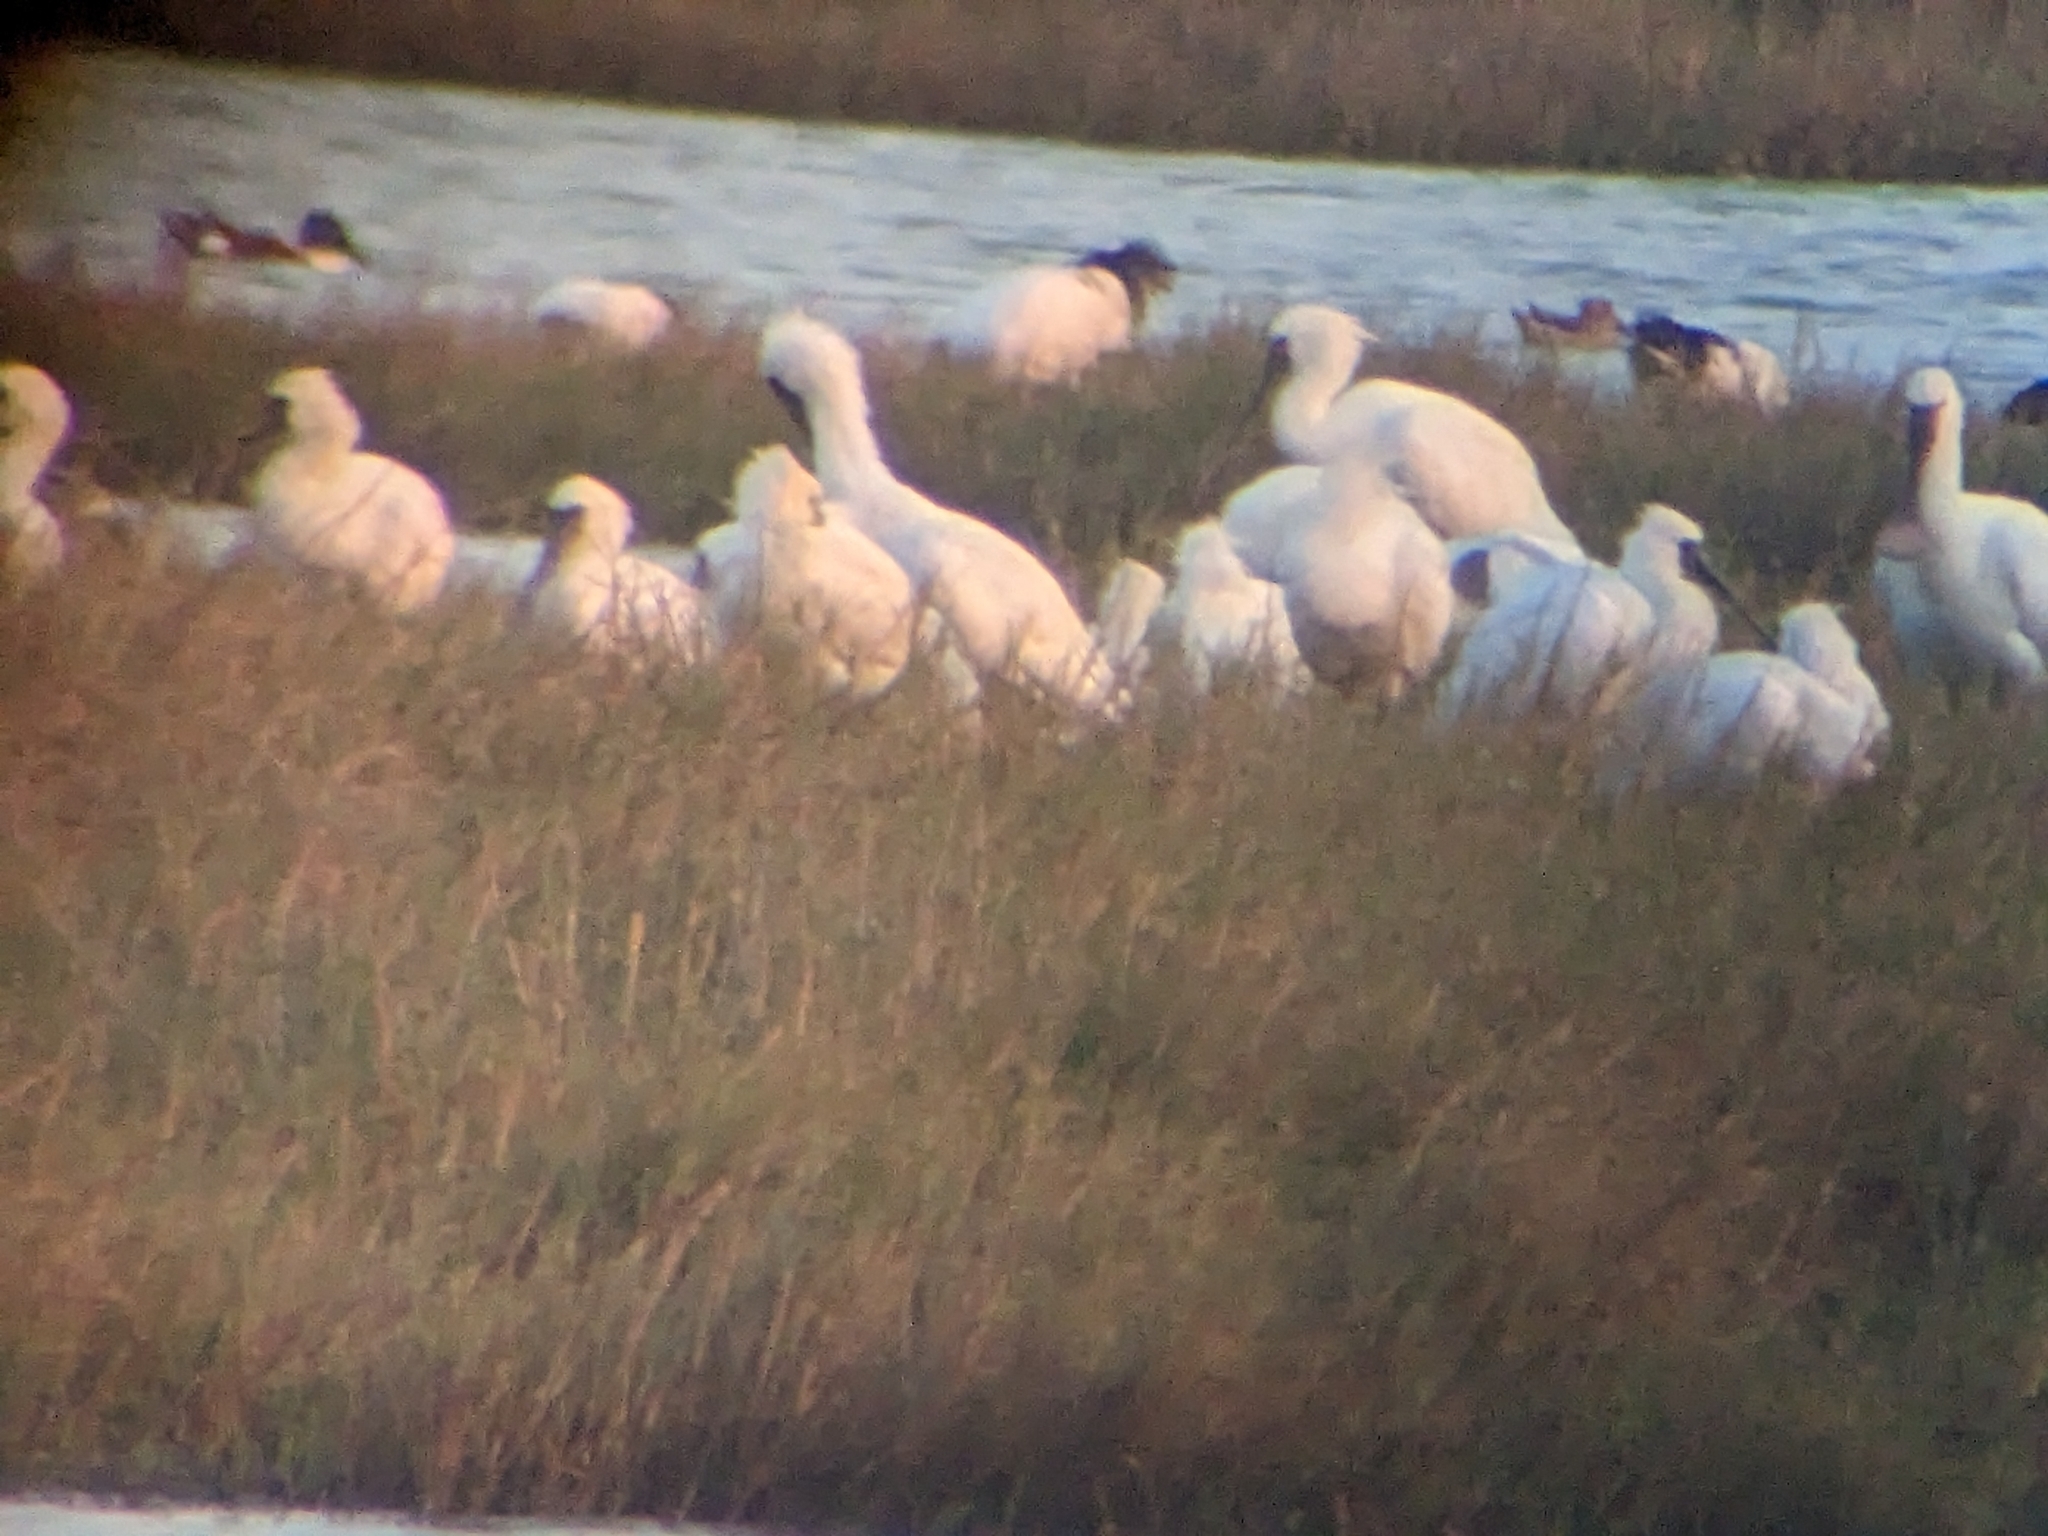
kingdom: Animalia
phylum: Chordata
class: Aves
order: Pelecaniformes
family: Threskiornithidae
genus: Platalea
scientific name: Platalea minor
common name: Black-faced spoonbill
